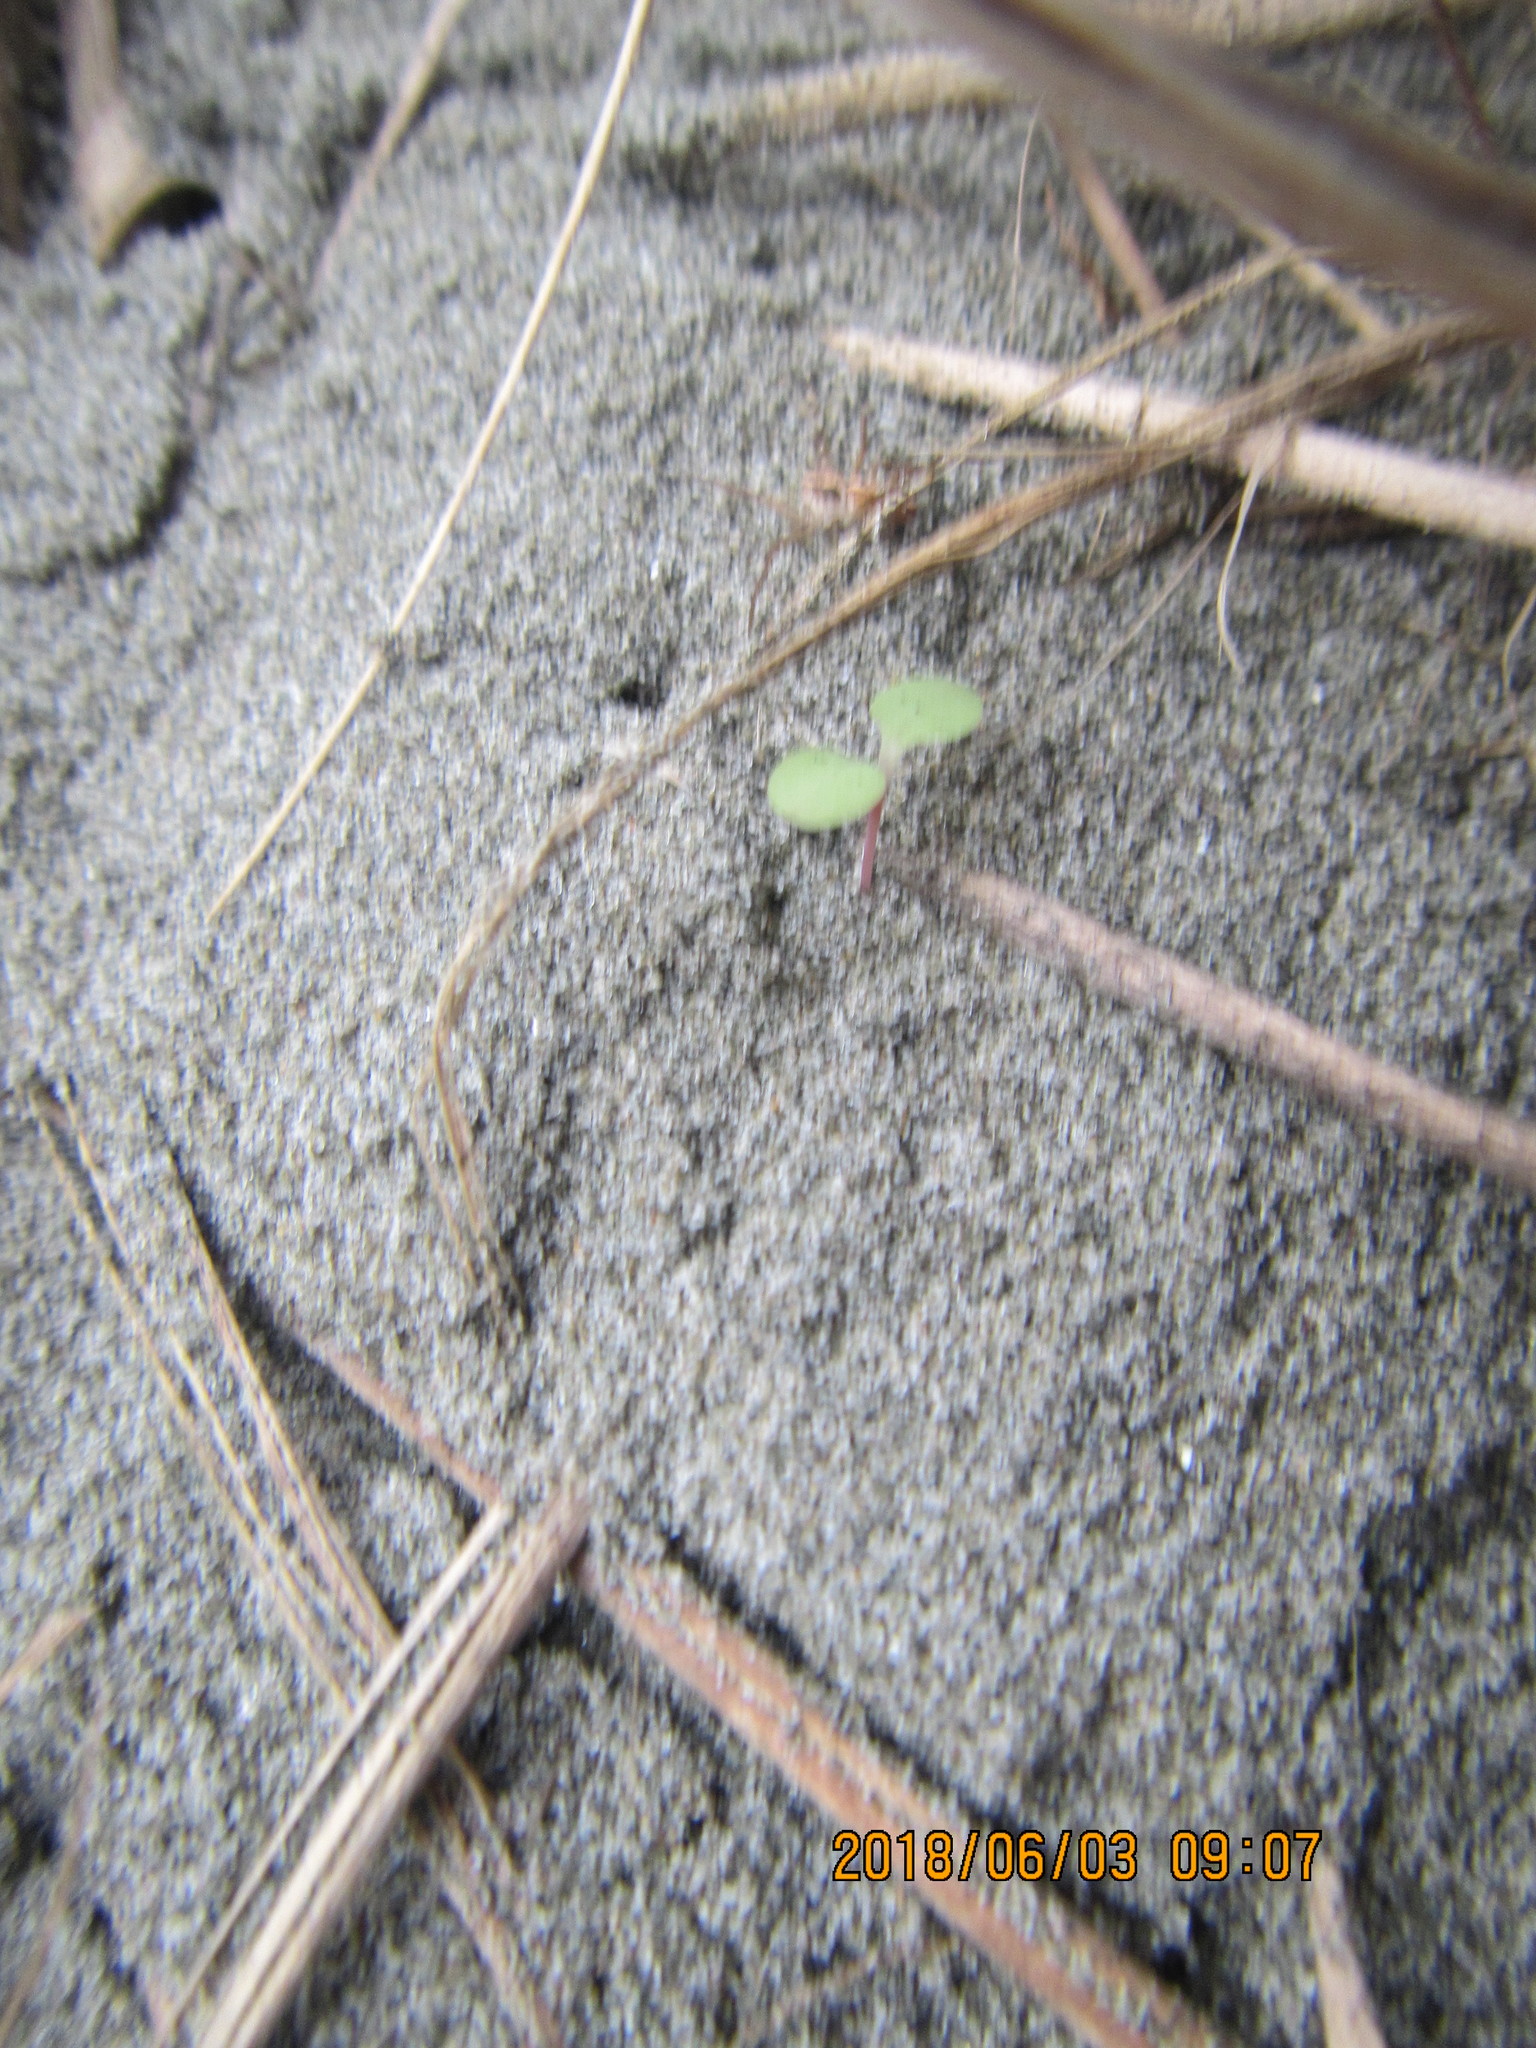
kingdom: Animalia
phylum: Arthropoda
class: Arachnida
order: Araneae
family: Oxyopidae
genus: Oxyopes
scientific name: Oxyopes gracilipes
